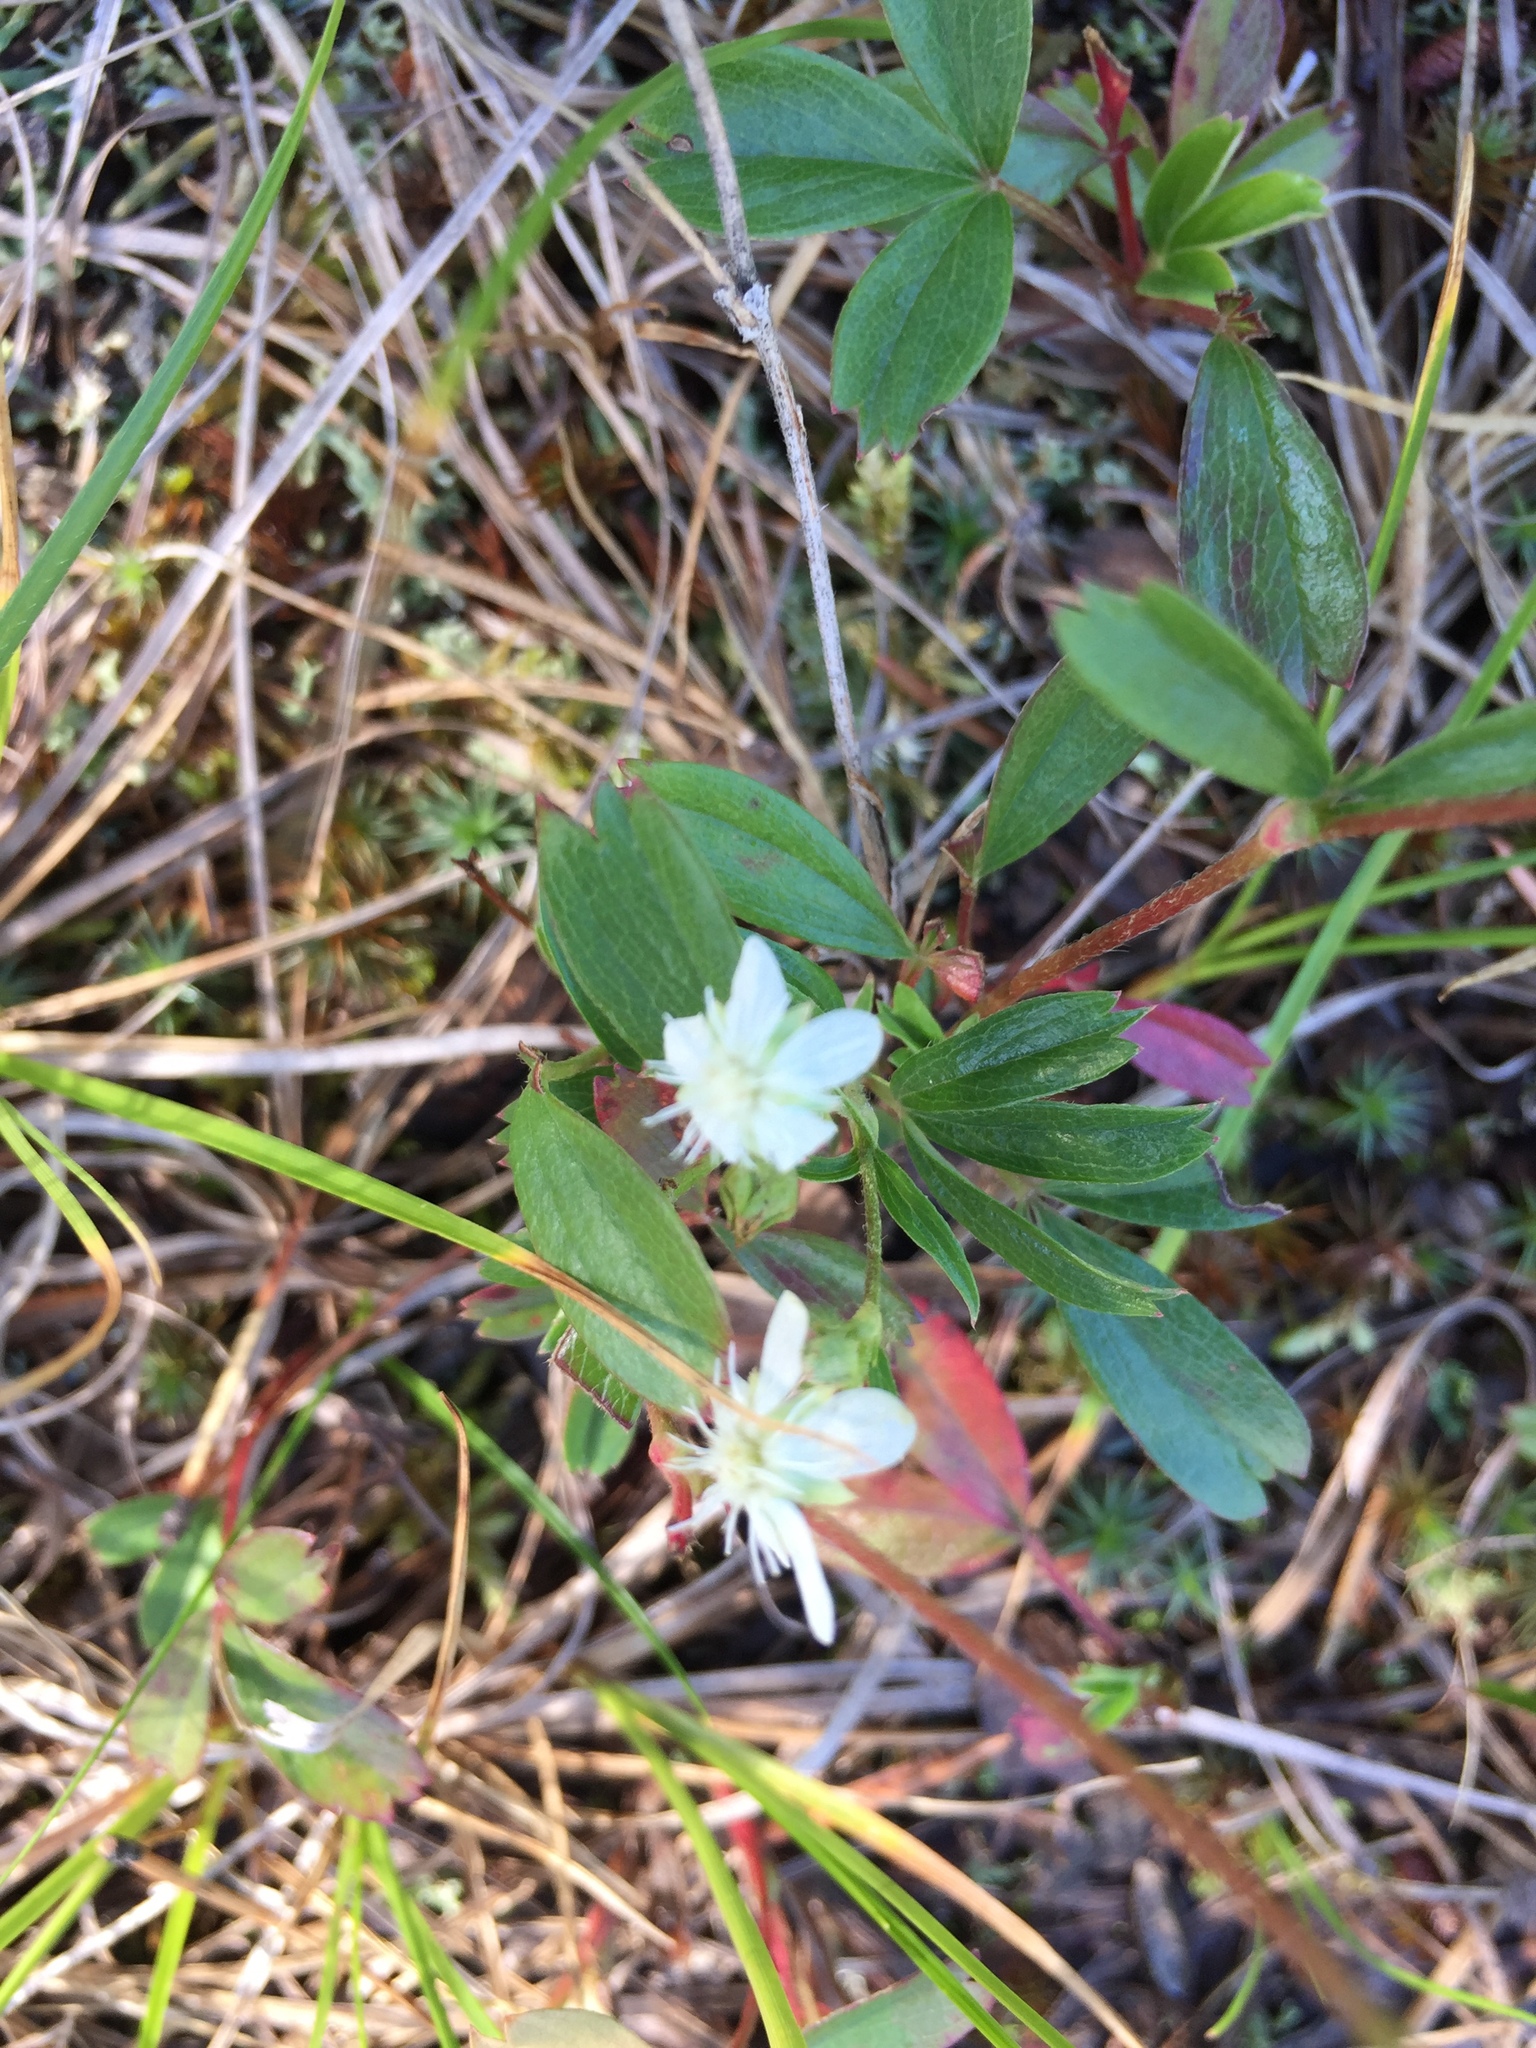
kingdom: Plantae
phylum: Tracheophyta
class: Magnoliopsida
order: Rosales
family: Rosaceae
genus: Sibbaldia
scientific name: Sibbaldia tridentata
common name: Three-toothed cinquefoil
